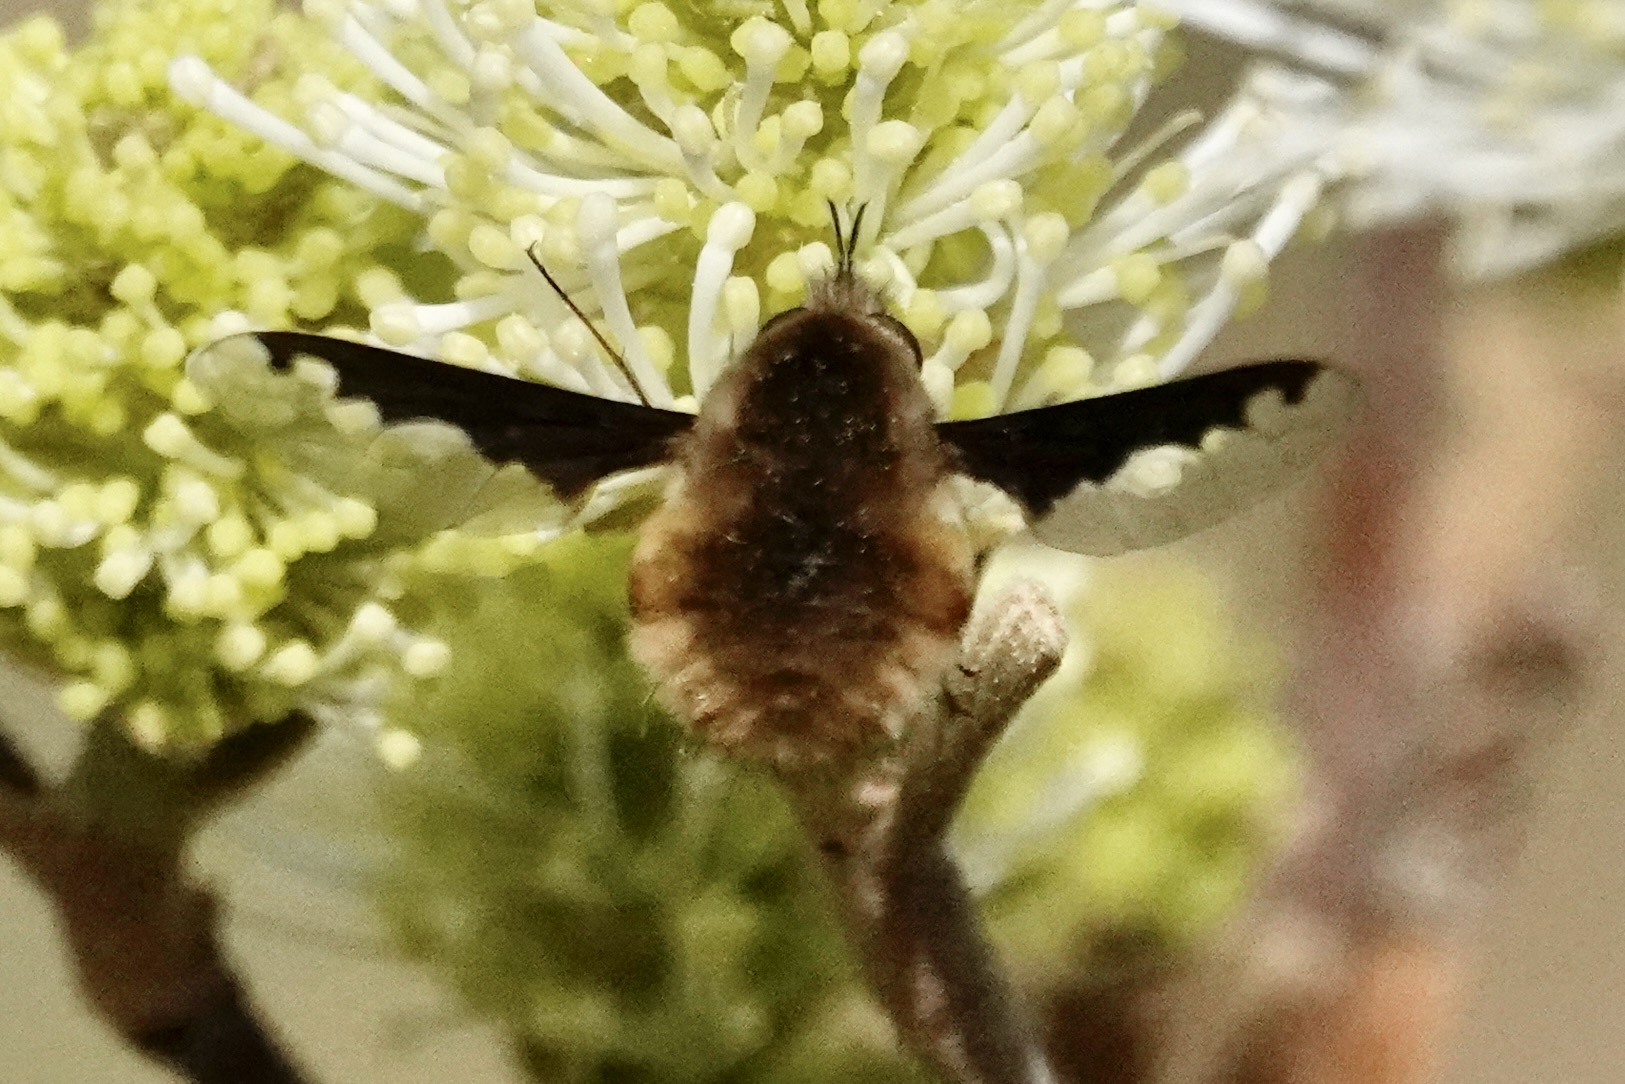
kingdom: Animalia
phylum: Arthropoda
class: Insecta
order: Diptera
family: Bombyliidae
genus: Bombylius
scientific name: Bombylius major
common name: Bee fly
